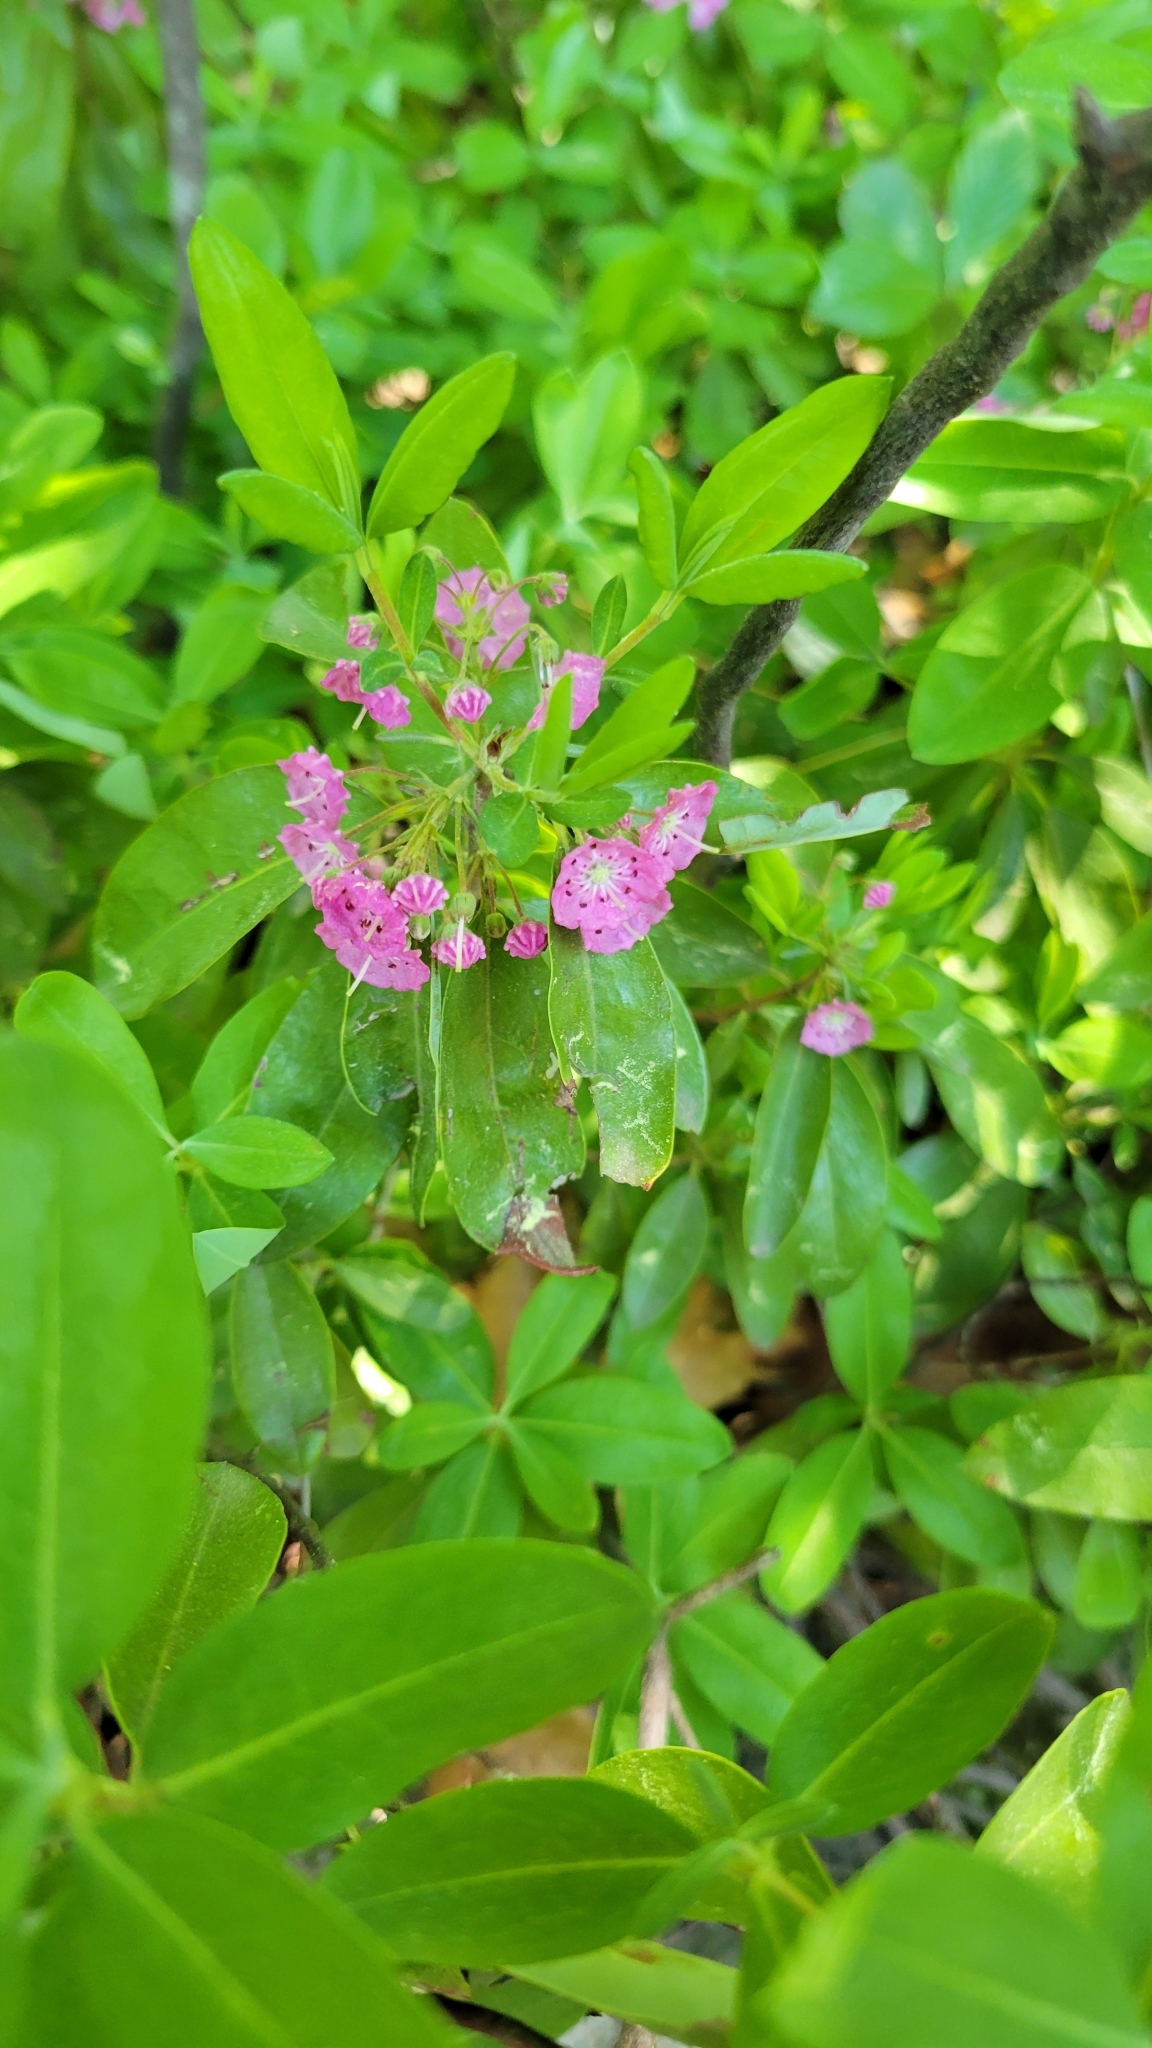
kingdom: Plantae
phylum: Tracheophyta
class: Magnoliopsida
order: Ericales
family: Ericaceae
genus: Kalmia
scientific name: Kalmia angustifolia
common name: Sheep-laurel
